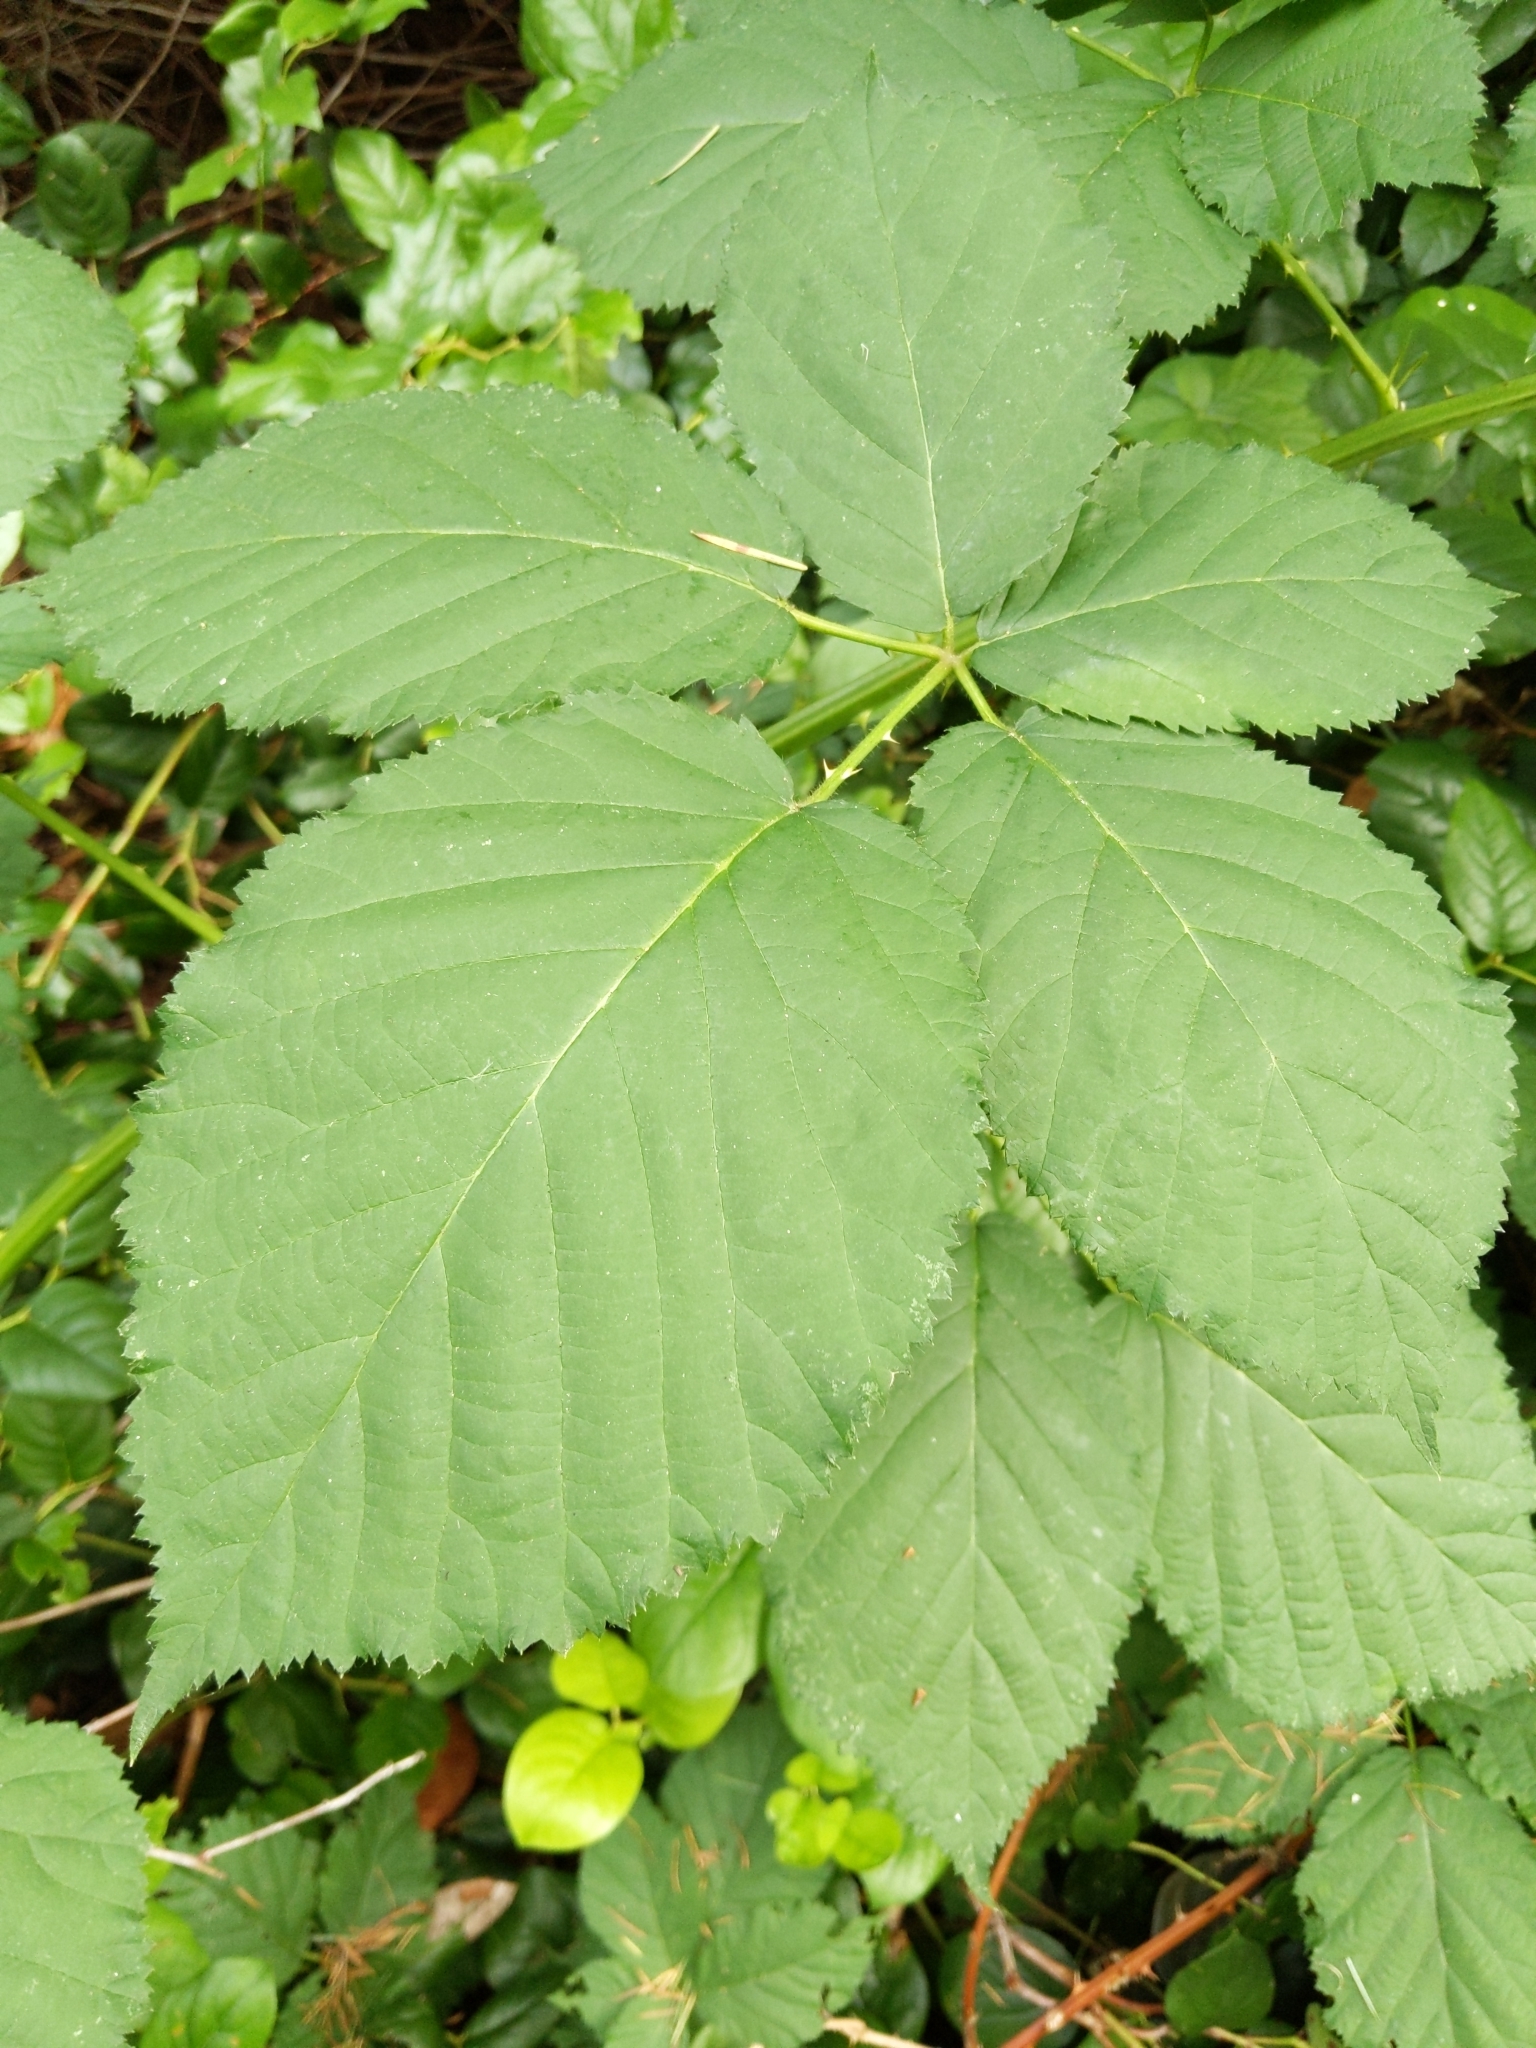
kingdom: Plantae
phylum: Tracheophyta
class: Magnoliopsida
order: Rosales
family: Rosaceae
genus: Rubus
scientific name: Rubus bifrons
